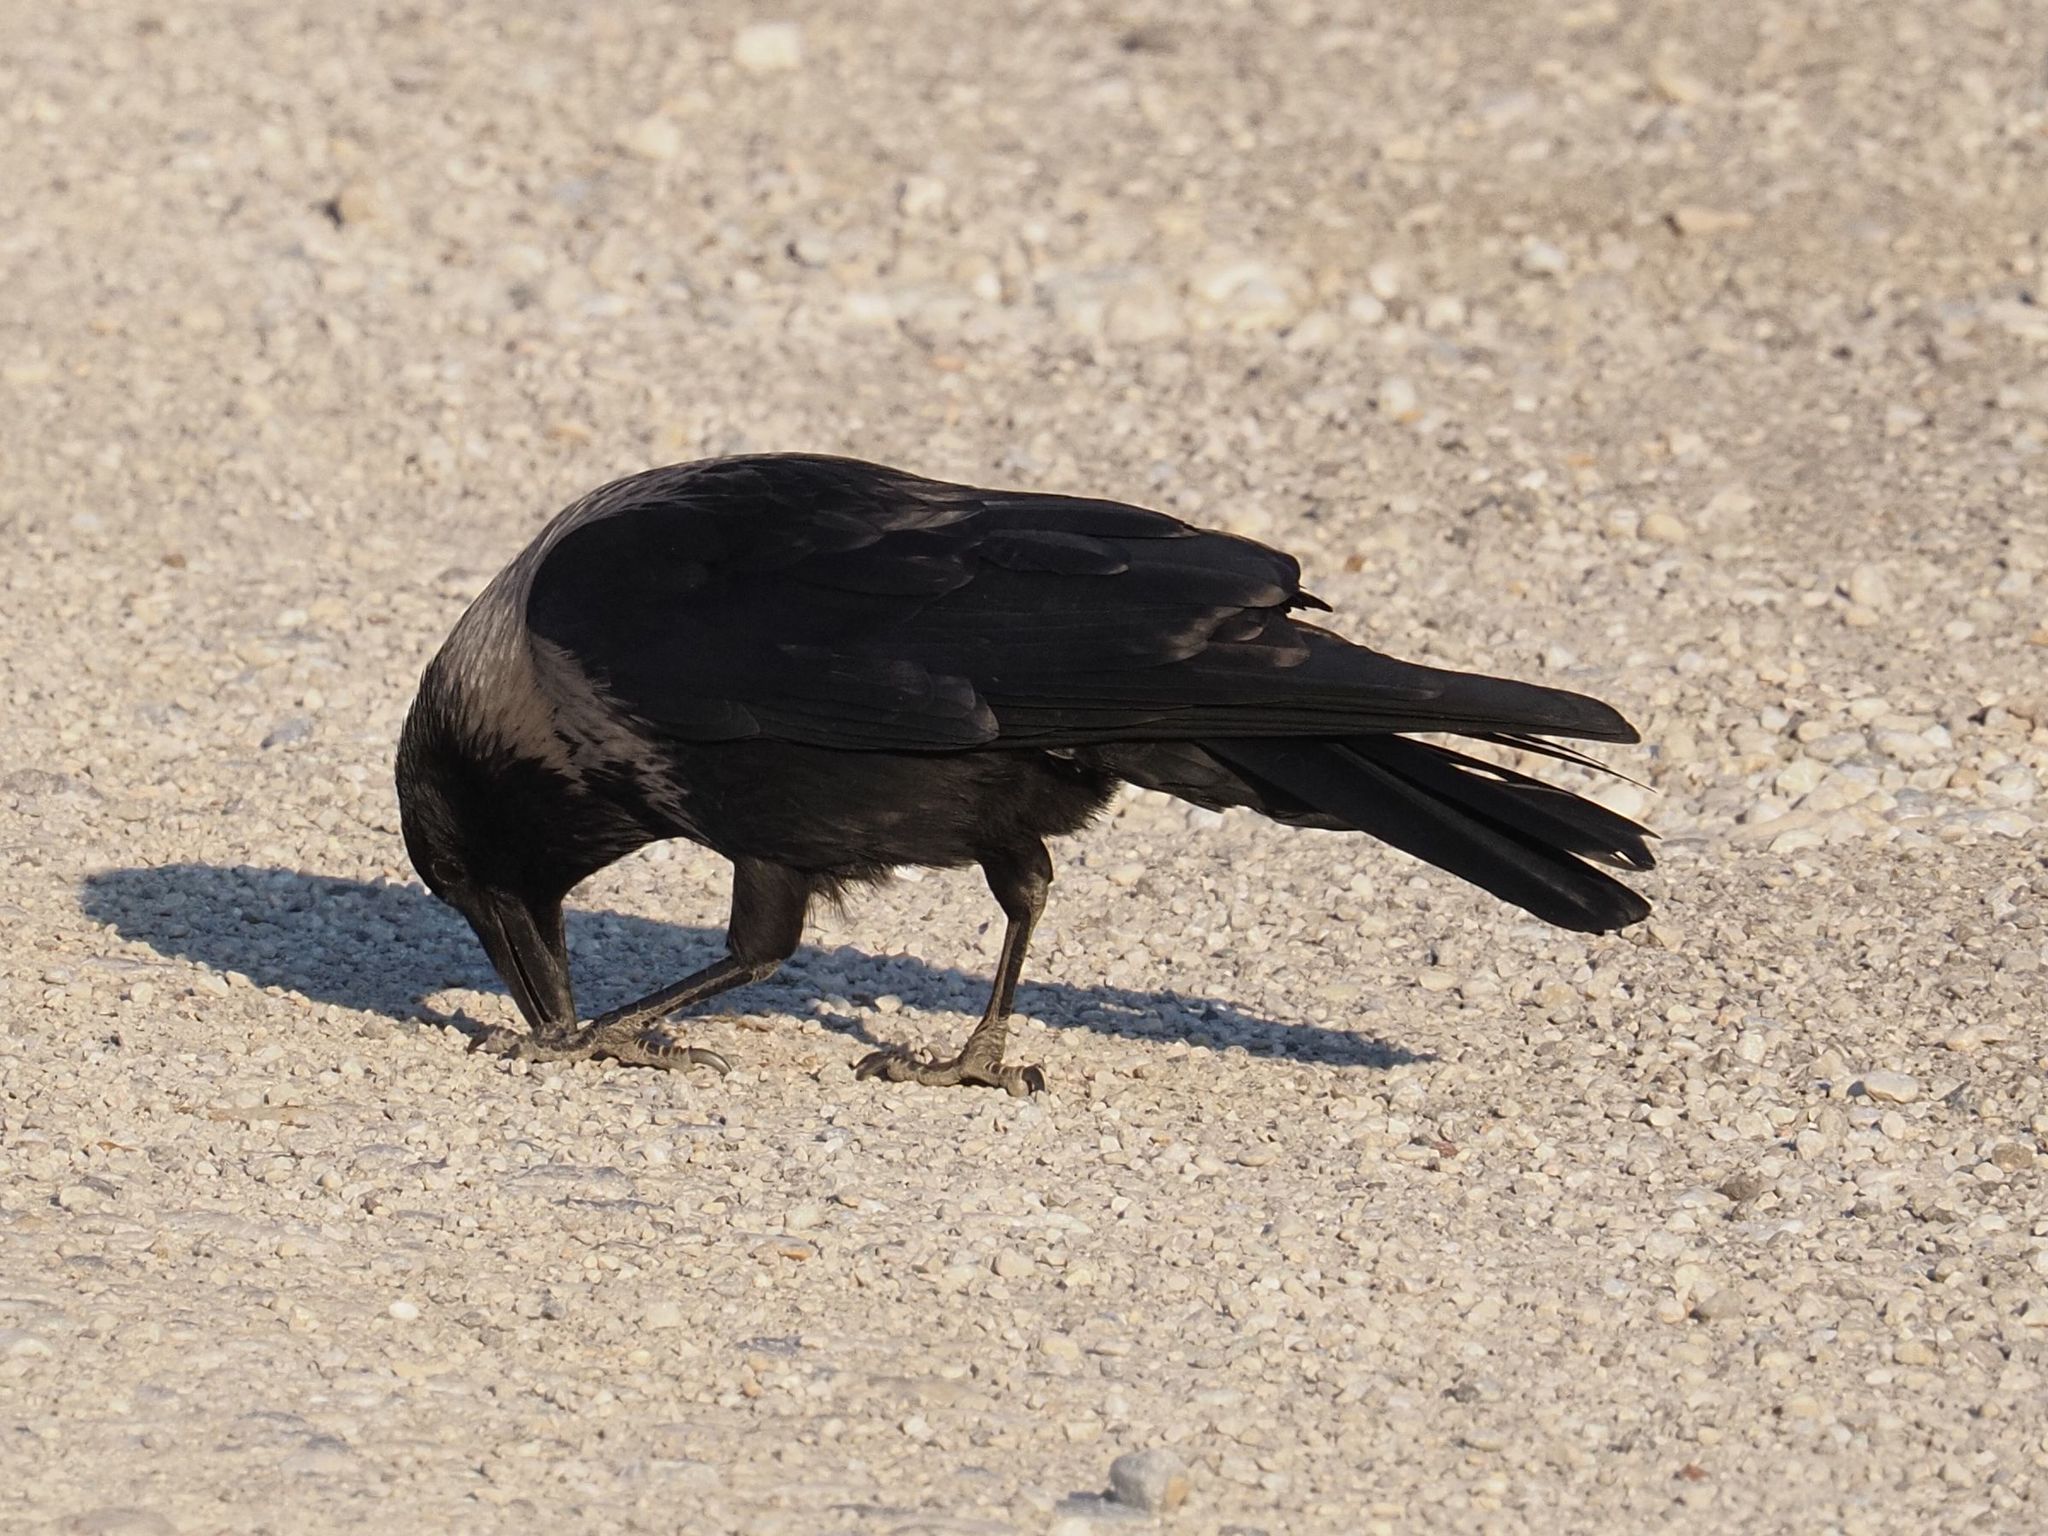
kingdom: Animalia
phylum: Chordata
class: Aves
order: Passeriformes
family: Corvidae
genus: Corvus
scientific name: Corvus
